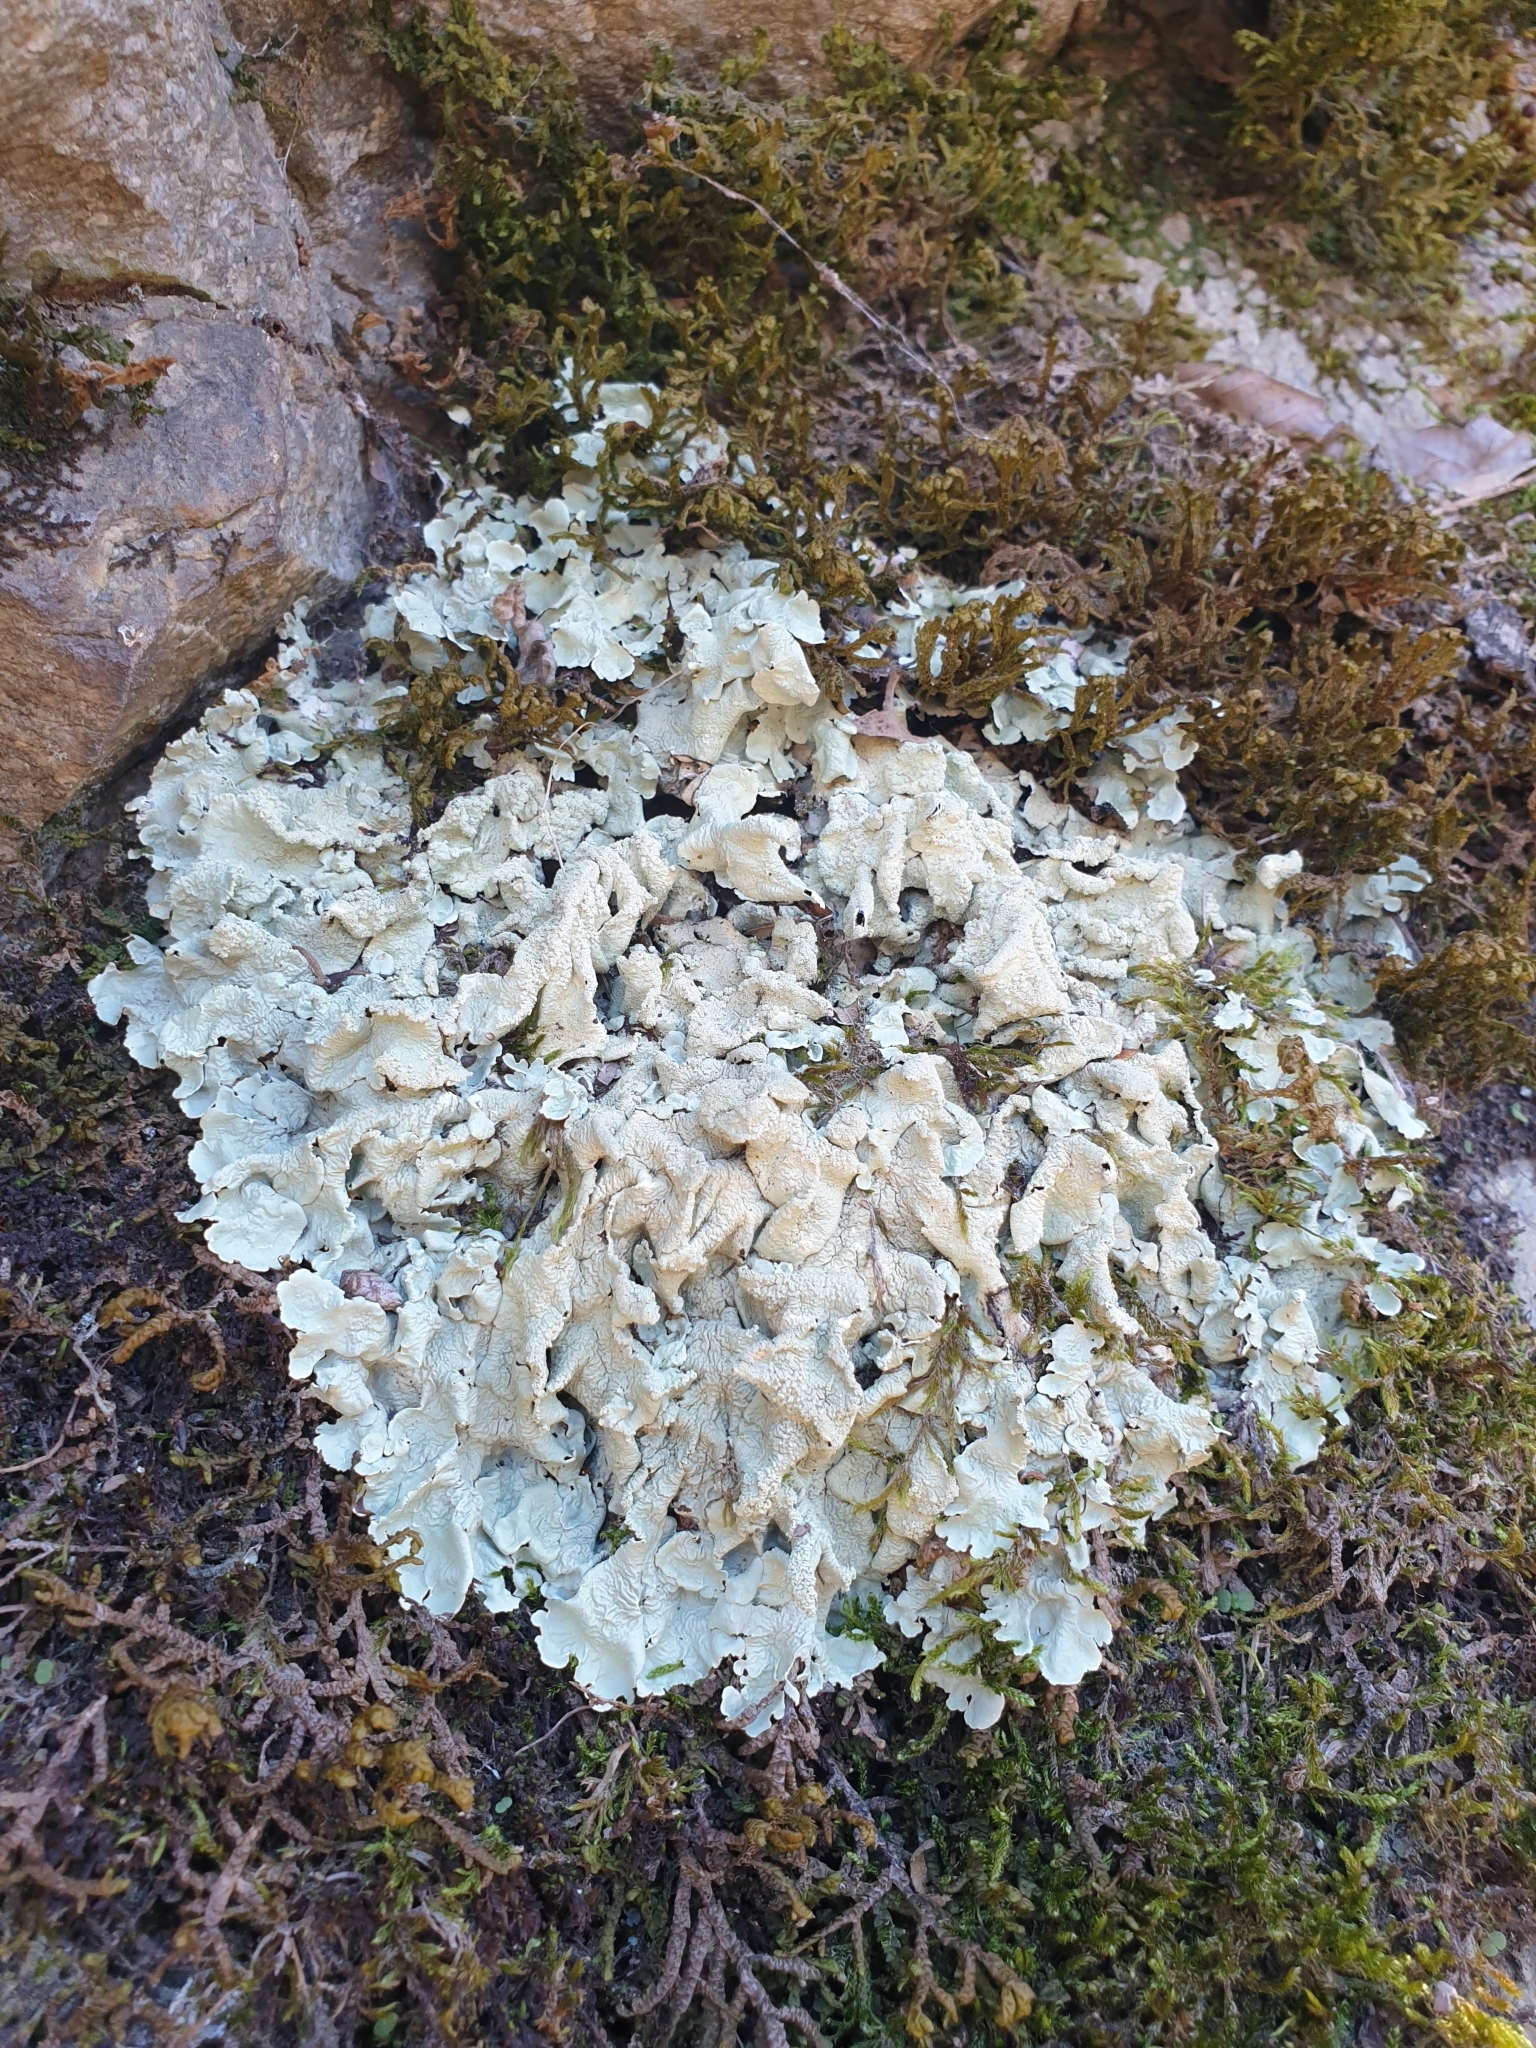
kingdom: Fungi
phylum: Ascomycota
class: Lecanoromycetes
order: Lecanorales
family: Parmeliaceae
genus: Flavoparmelia
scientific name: Flavoparmelia caperata
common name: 40-mile per hour lichen
